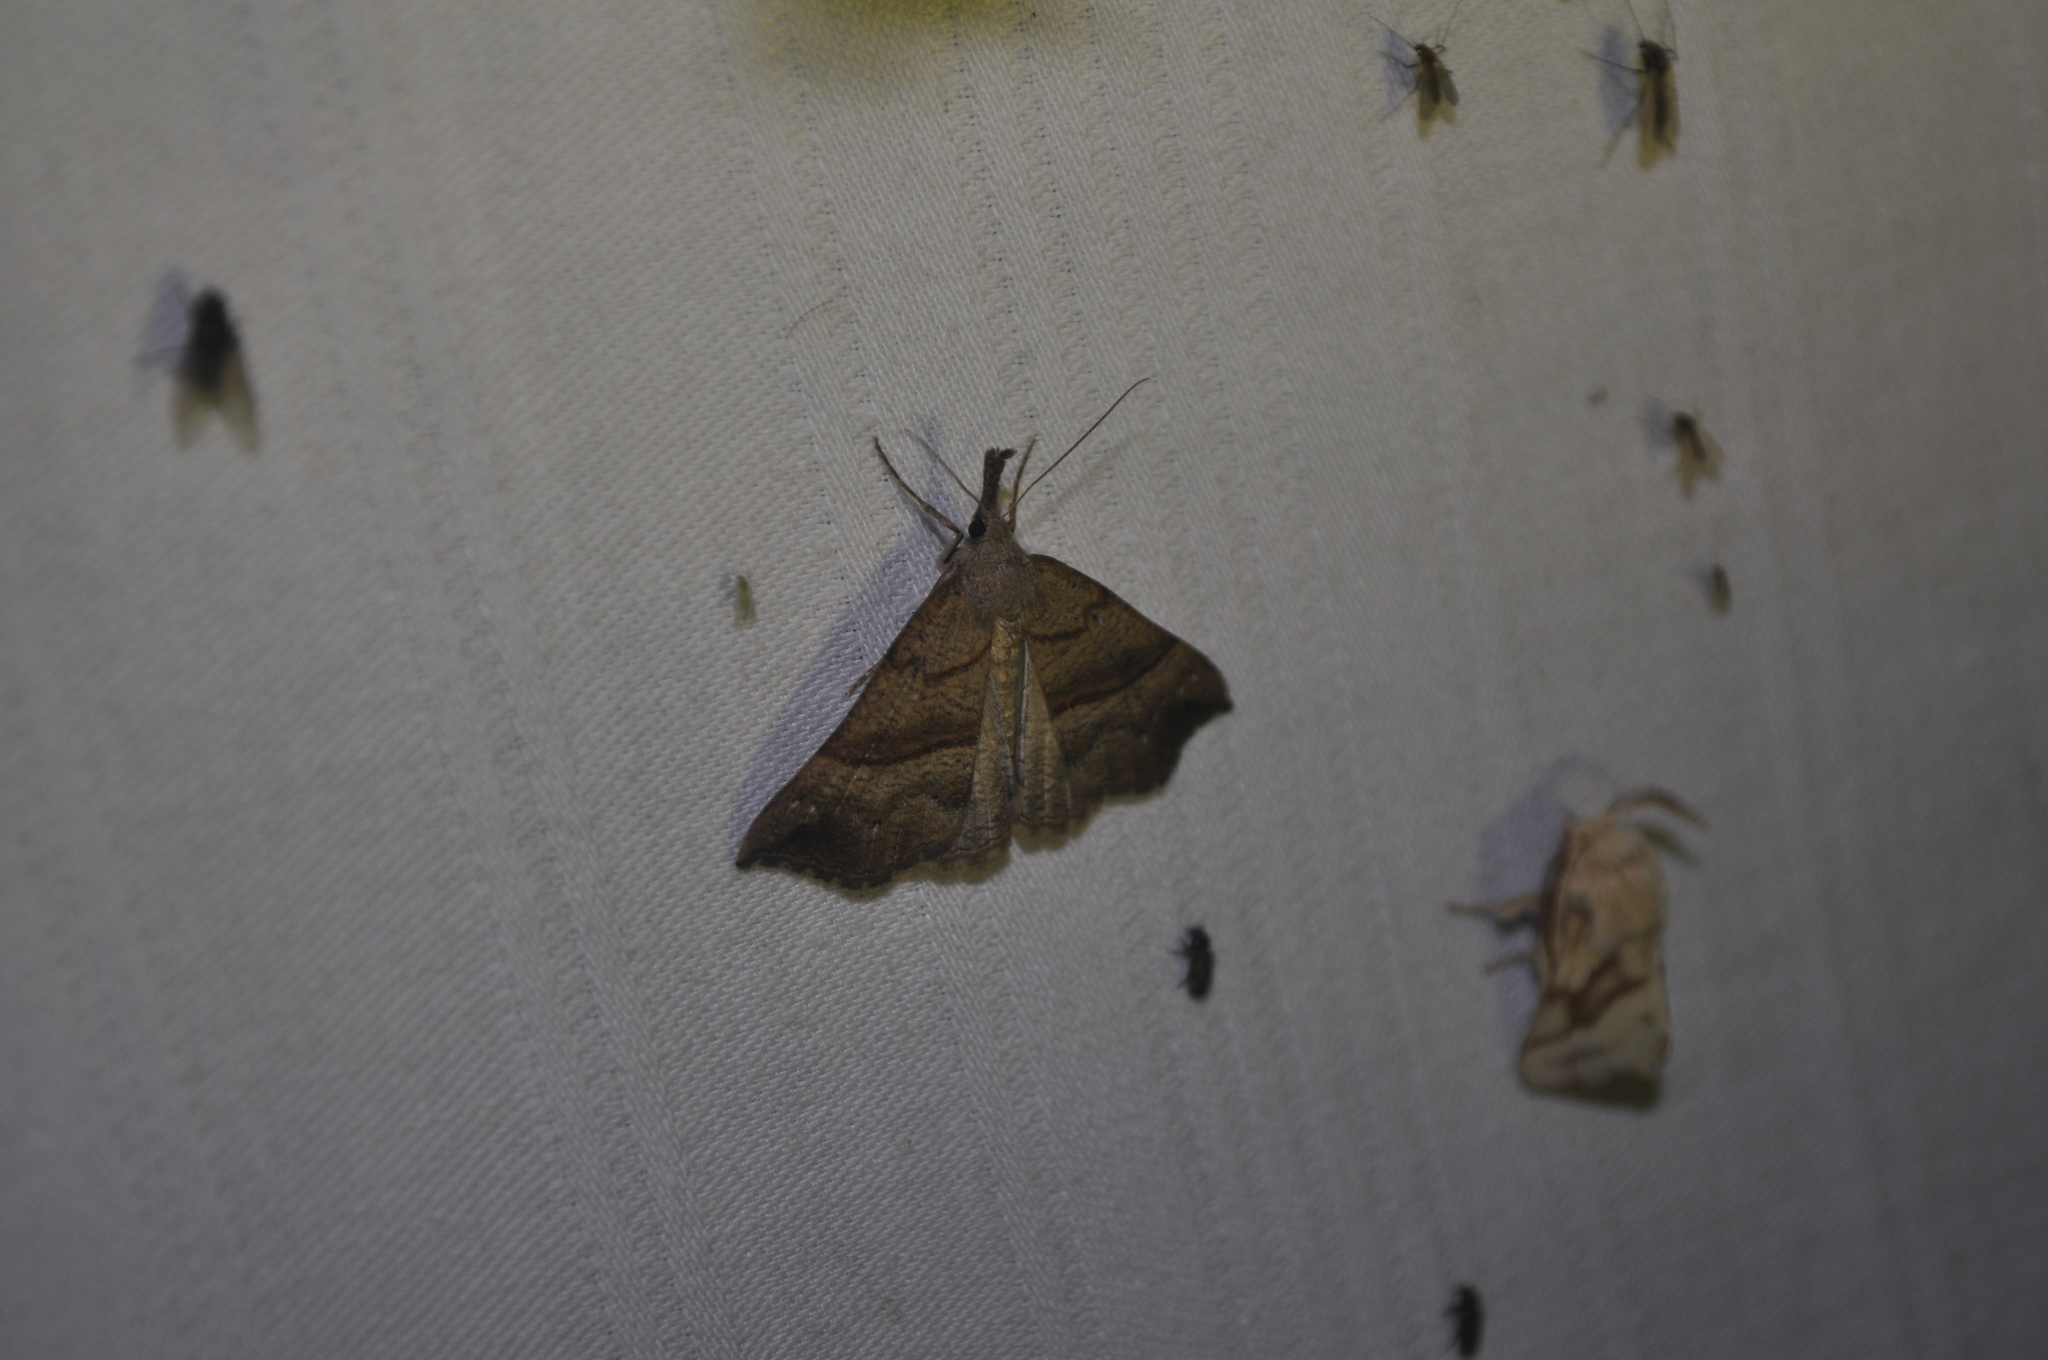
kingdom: Animalia
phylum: Arthropoda
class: Insecta
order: Lepidoptera
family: Erebidae
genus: Hypena
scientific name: Hypena proboscidalis
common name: Snout
